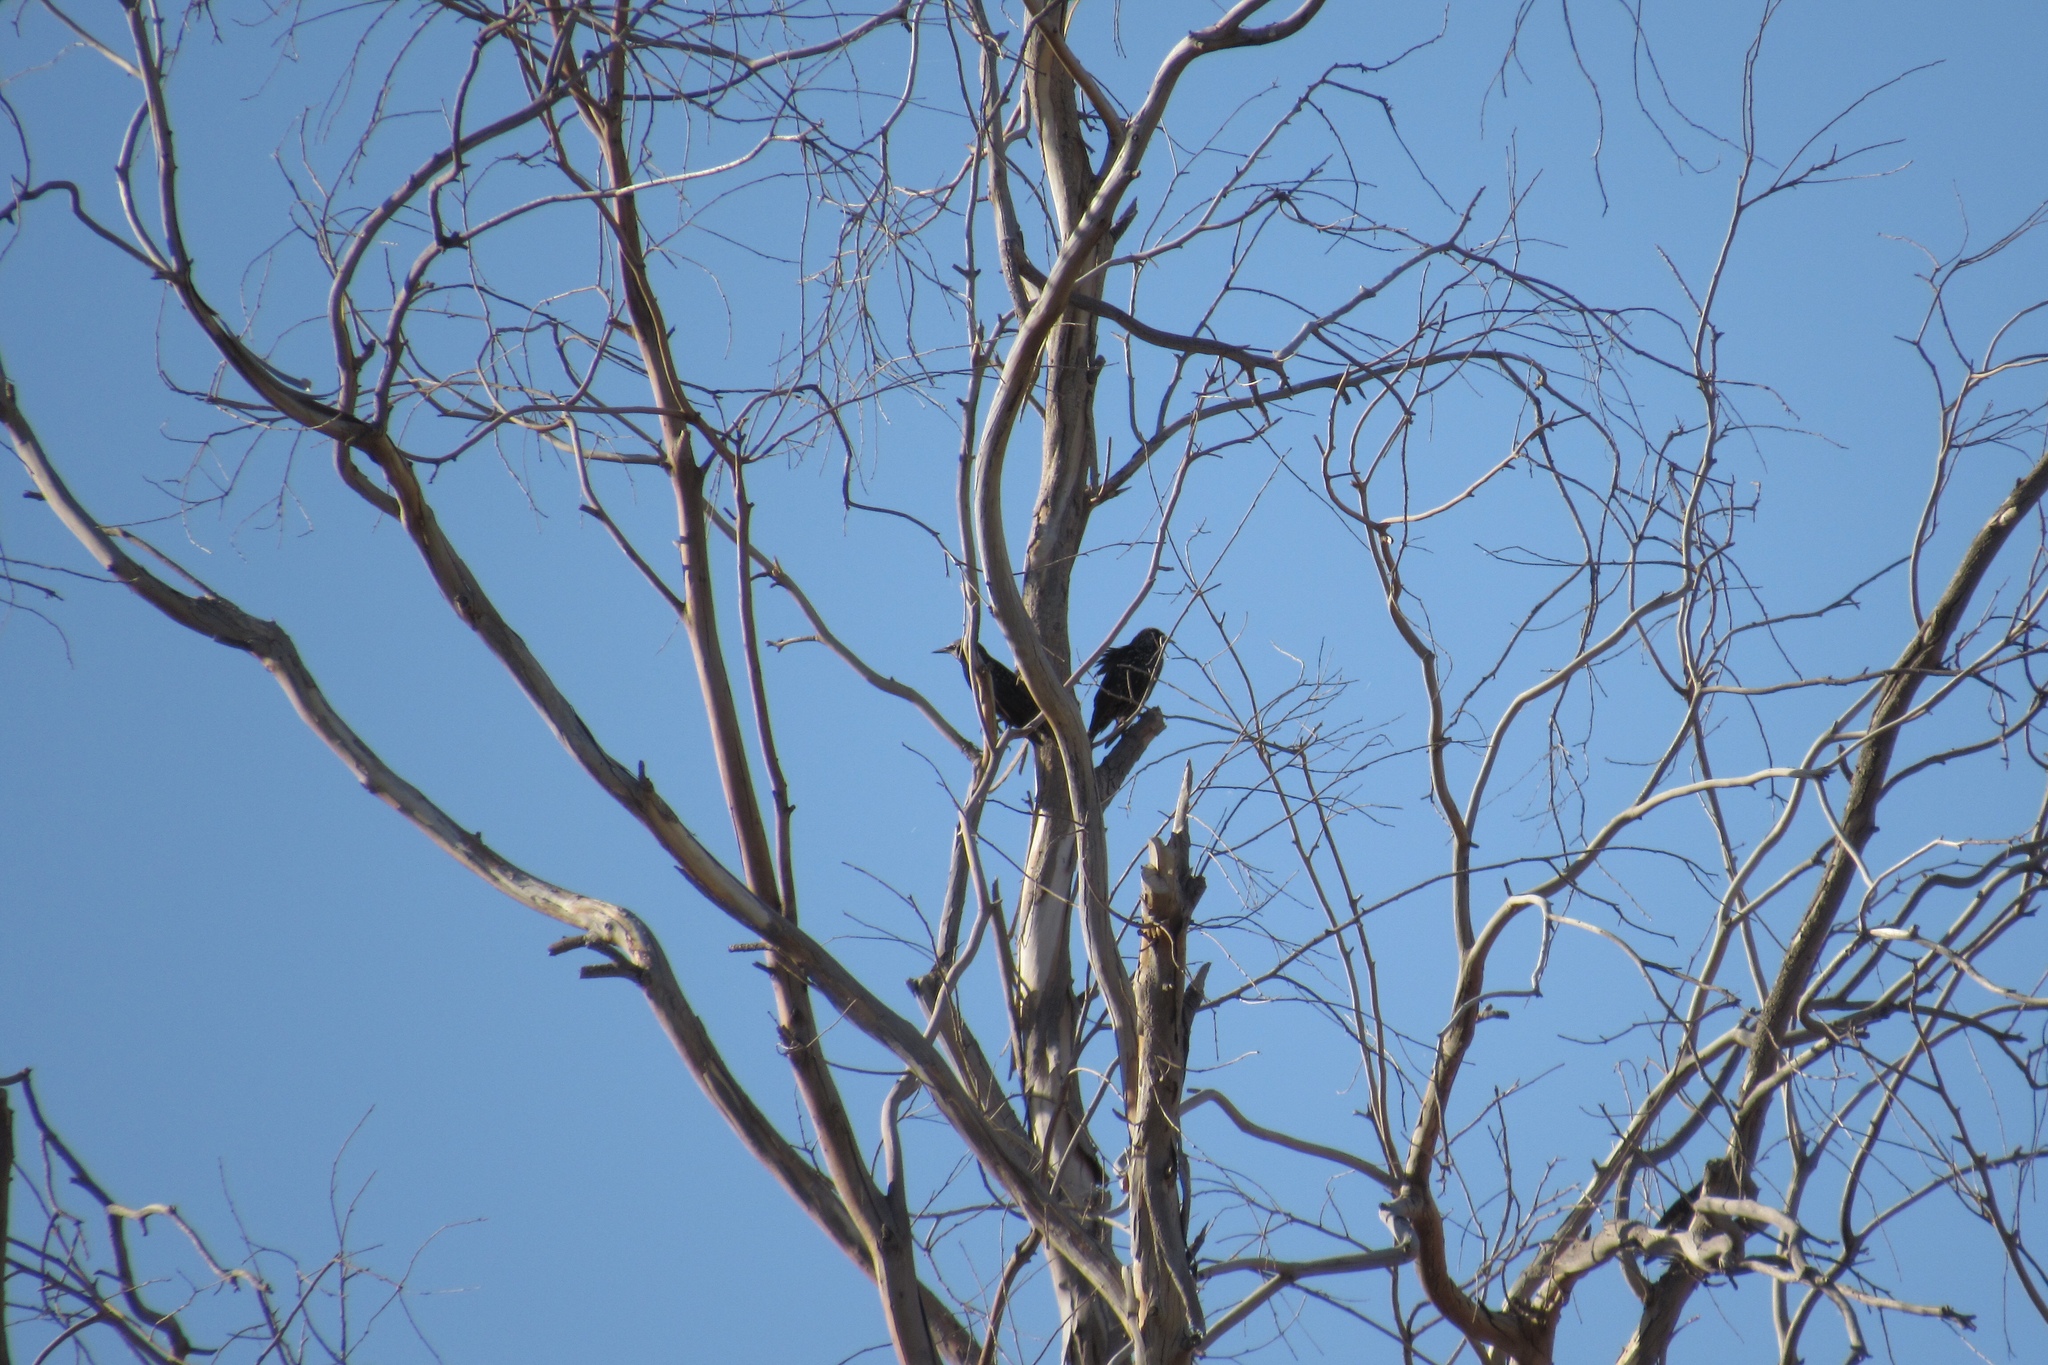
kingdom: Animalia
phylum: Chordata
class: Aves
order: Passeriformes
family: Sturnidae
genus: Sturnus
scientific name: Sturnus vulgaris
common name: Common starling
